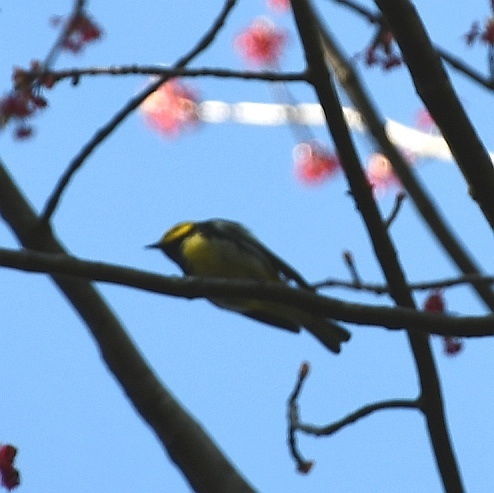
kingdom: Animalia
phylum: Chordata
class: Aves
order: Passeriformes
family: Parulidae
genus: Setophaga
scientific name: Setophaga virens
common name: Black-throated green warbler
